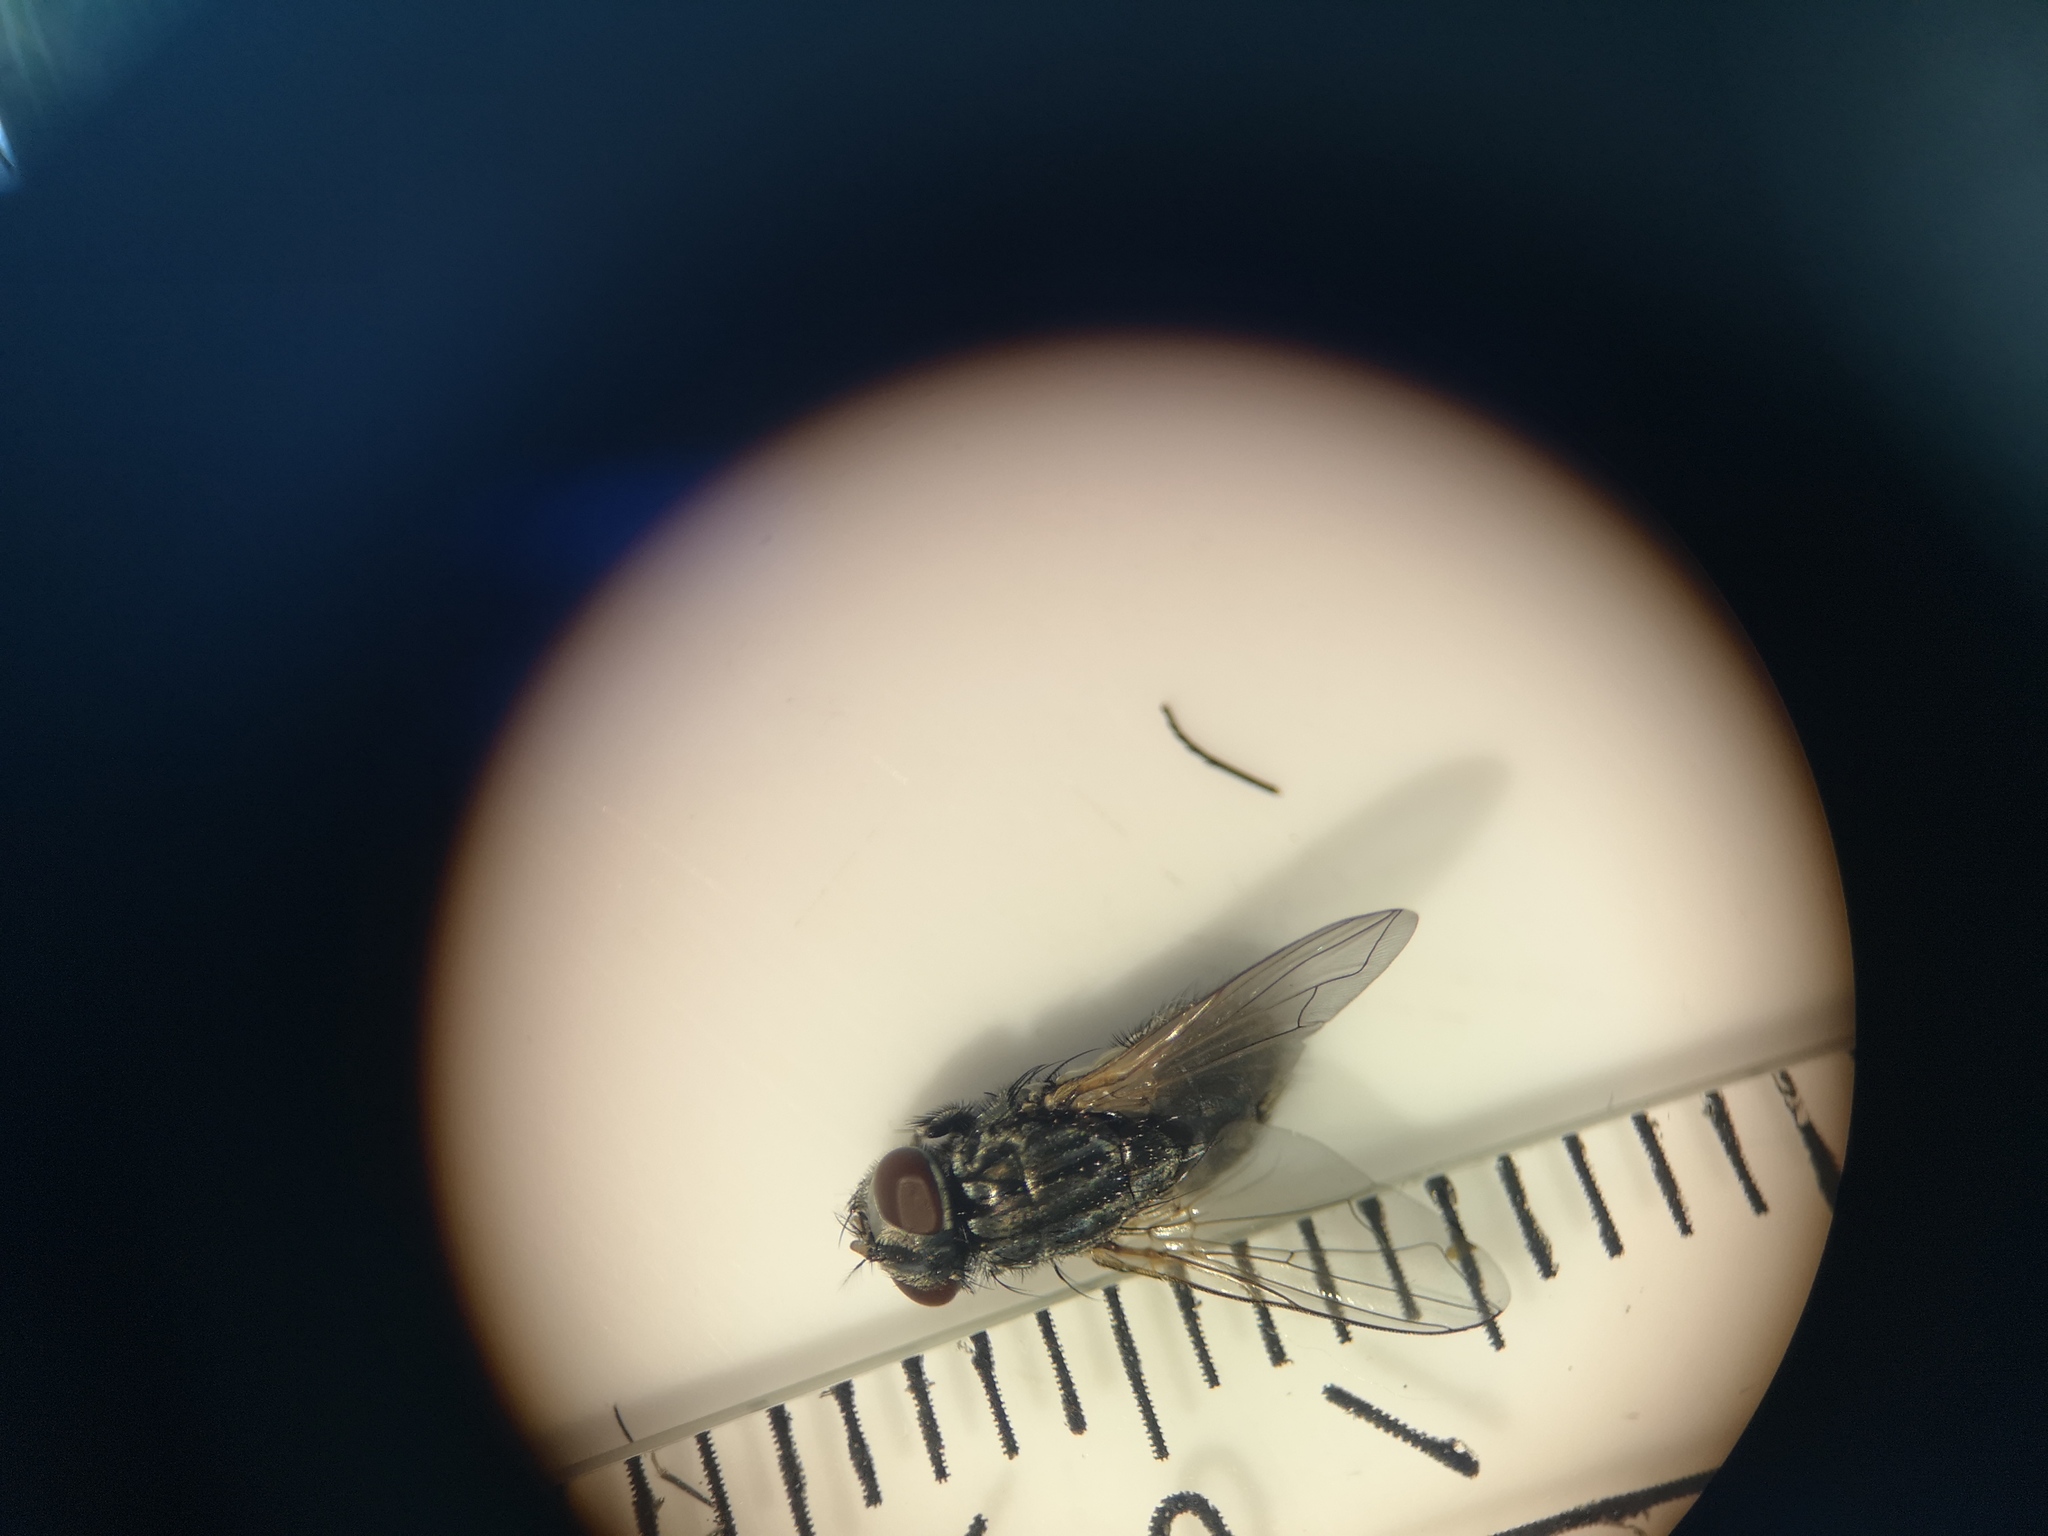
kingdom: Animalia
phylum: Arthropoda
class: Insecta
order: Diptera
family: Muscidae
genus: Musca
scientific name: Musca autumnalis
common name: Face fly
